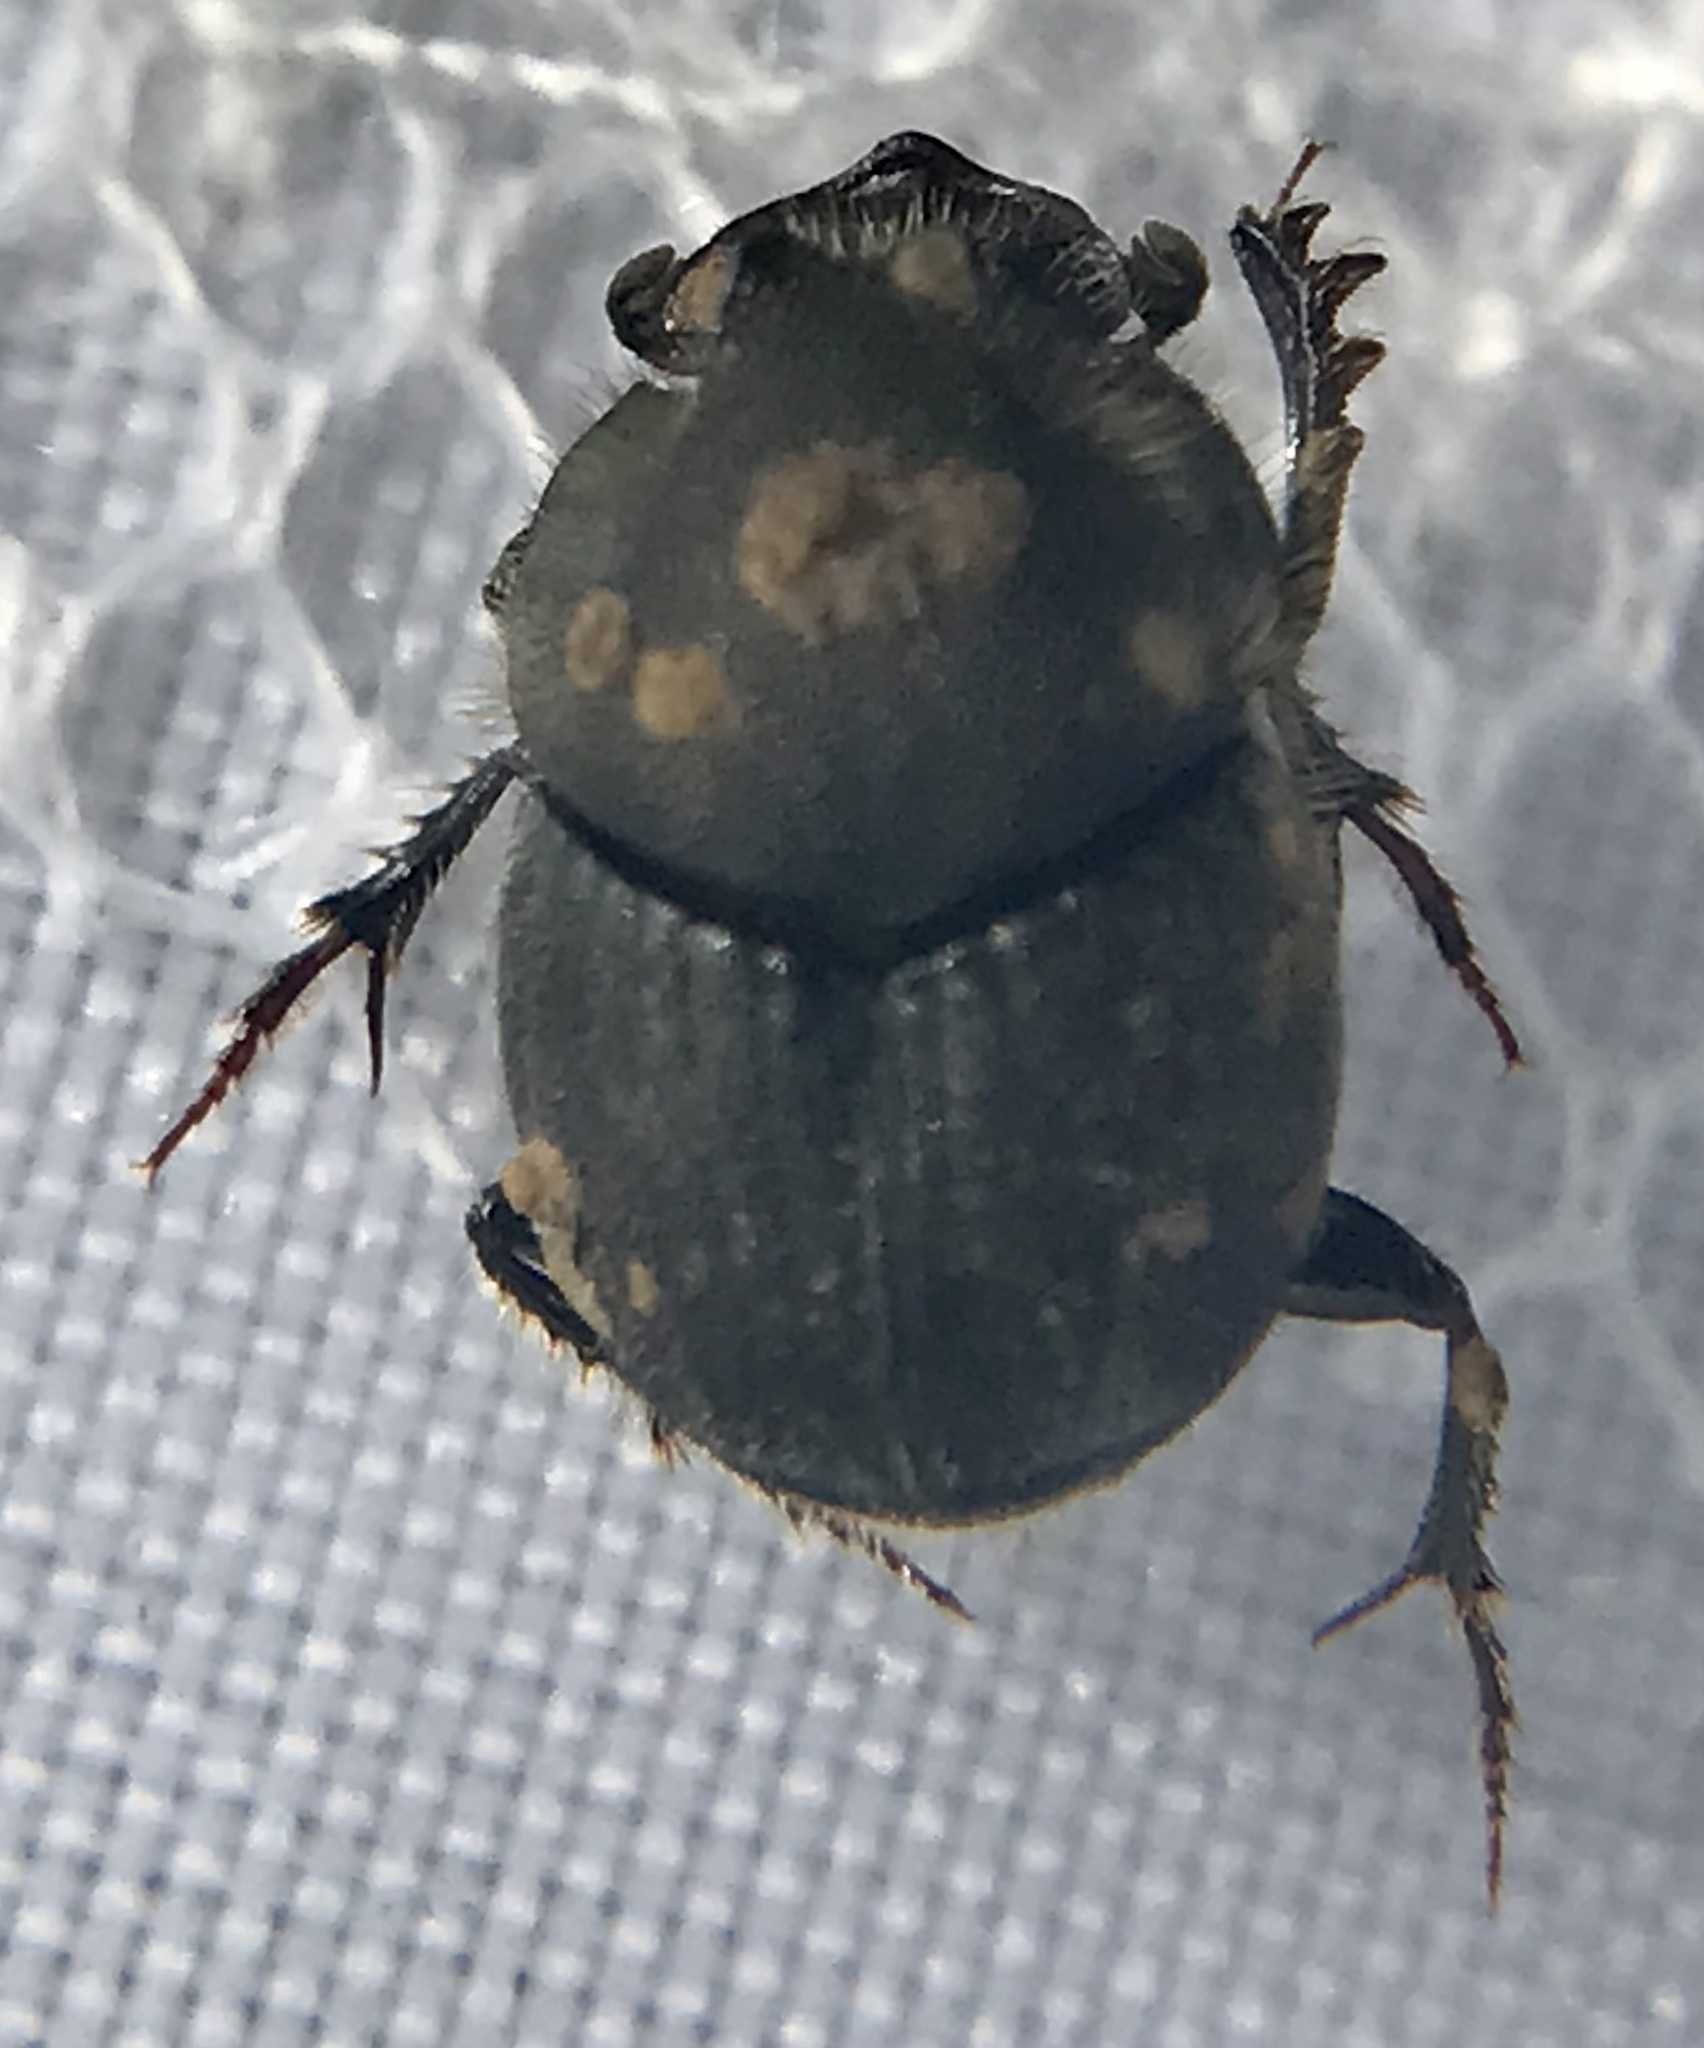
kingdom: Animalia
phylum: Arthropoda
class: Insecta
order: Coleoptera
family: Scarabaeidae
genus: Onthophagus
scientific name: Onthophagus hecate
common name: Scooped scarab
